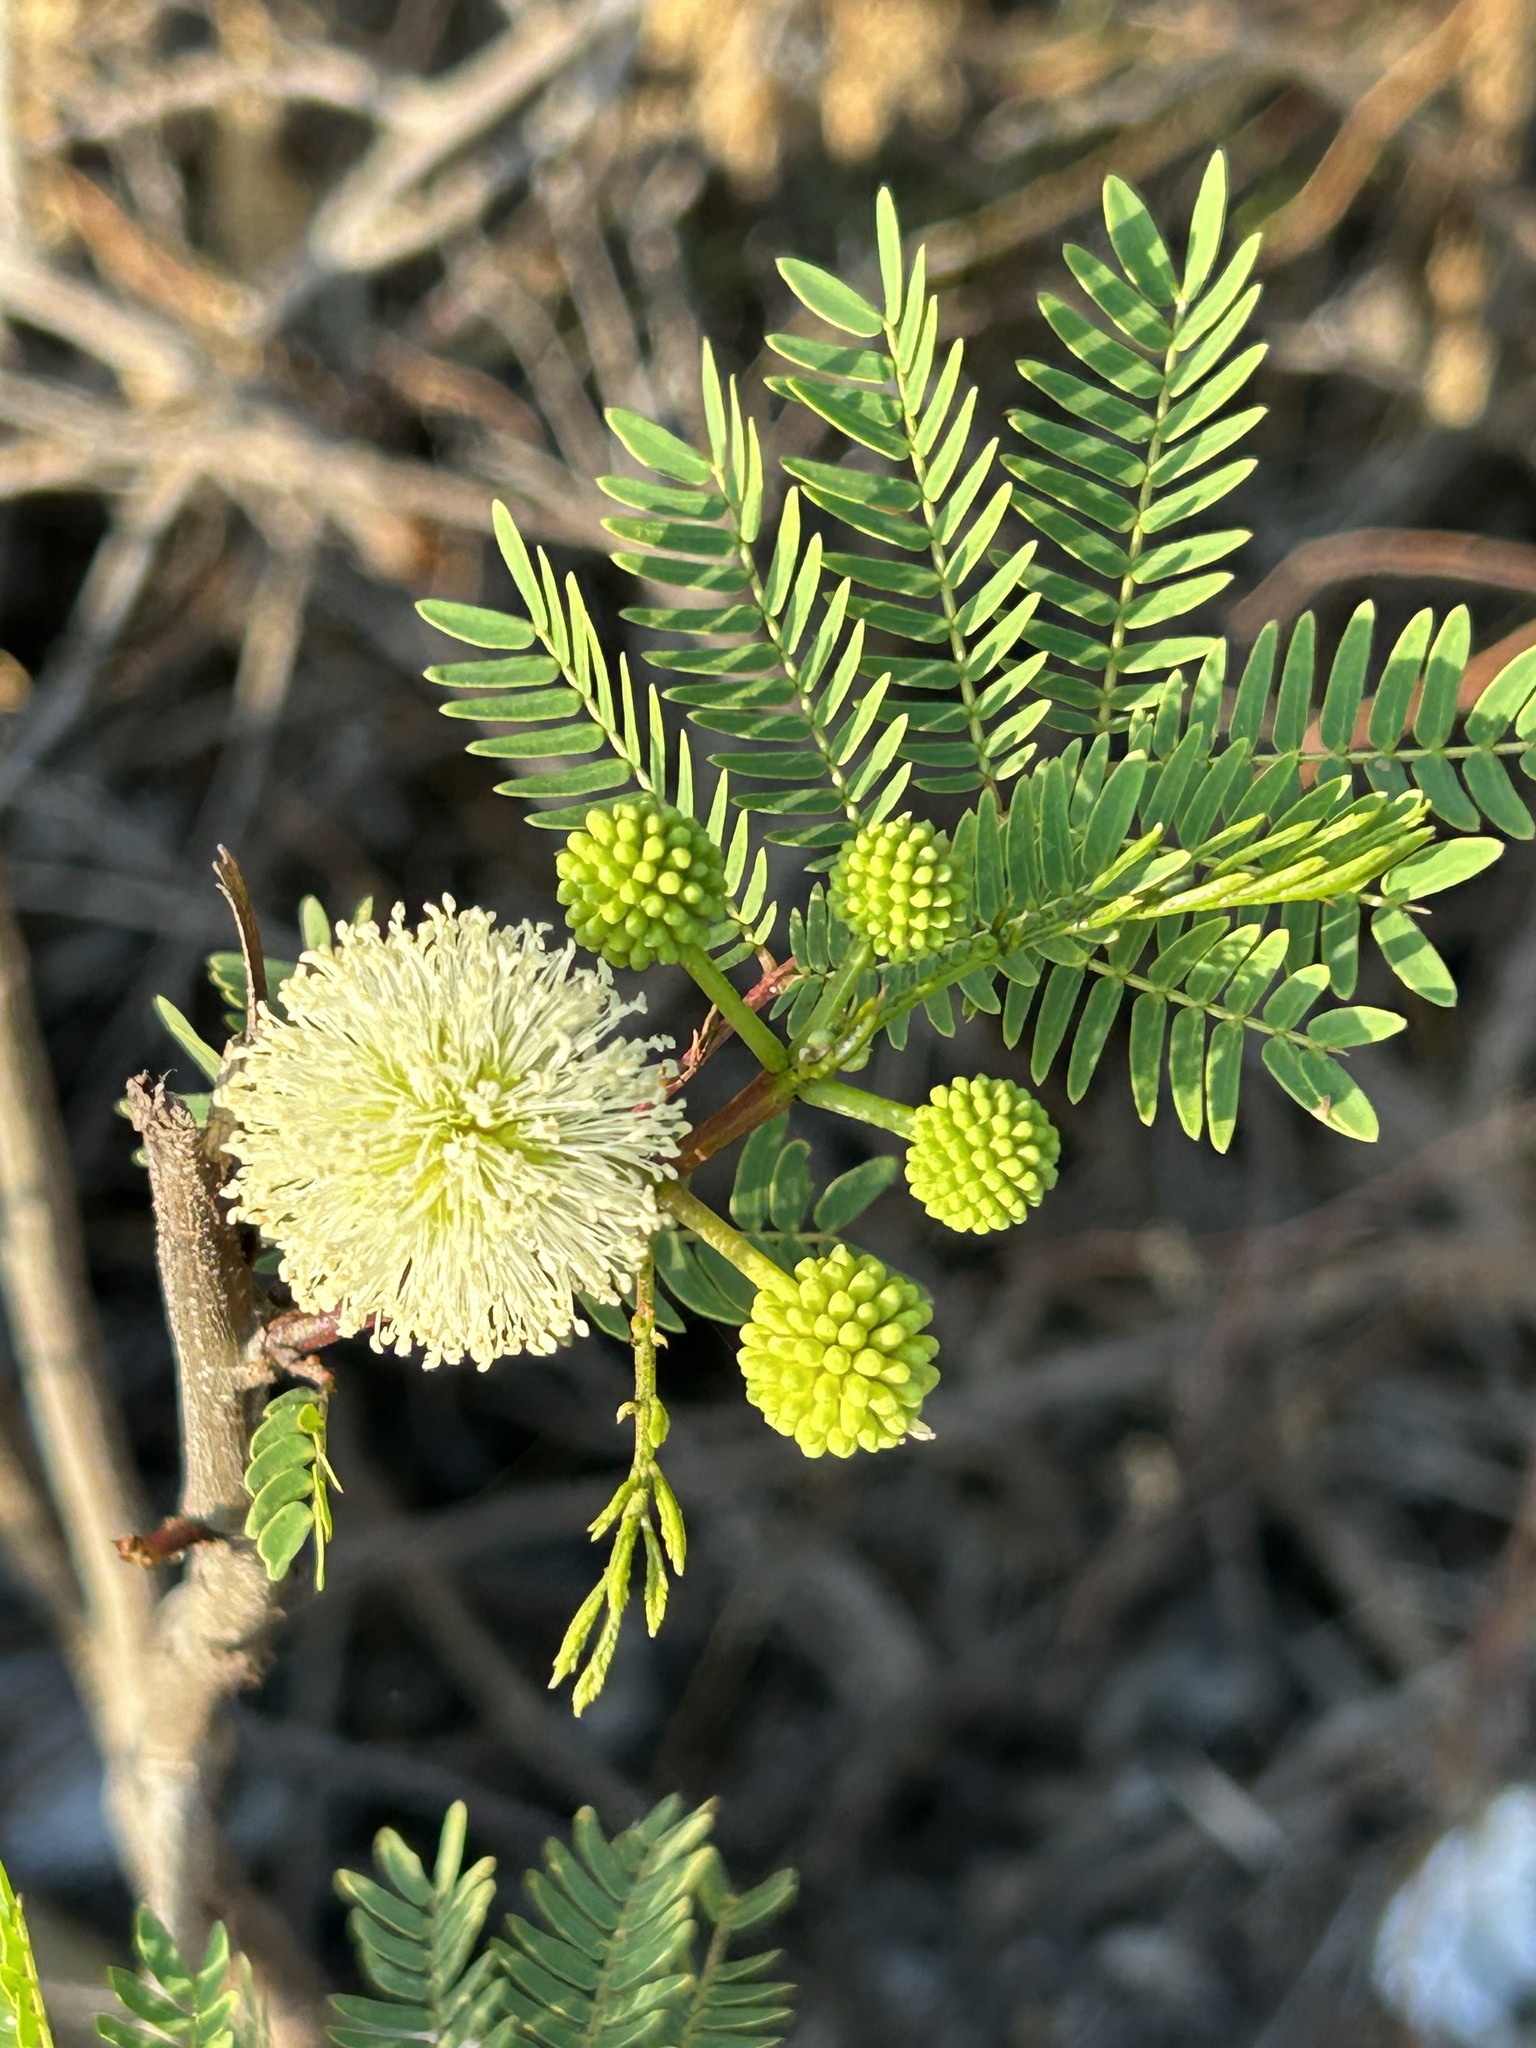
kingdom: Plantae
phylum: Tracheophyta
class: Magnoliopsida
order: Fabales
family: Fabaceae
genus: Leucaena
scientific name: Leucaena leucocephala
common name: White leadtree
